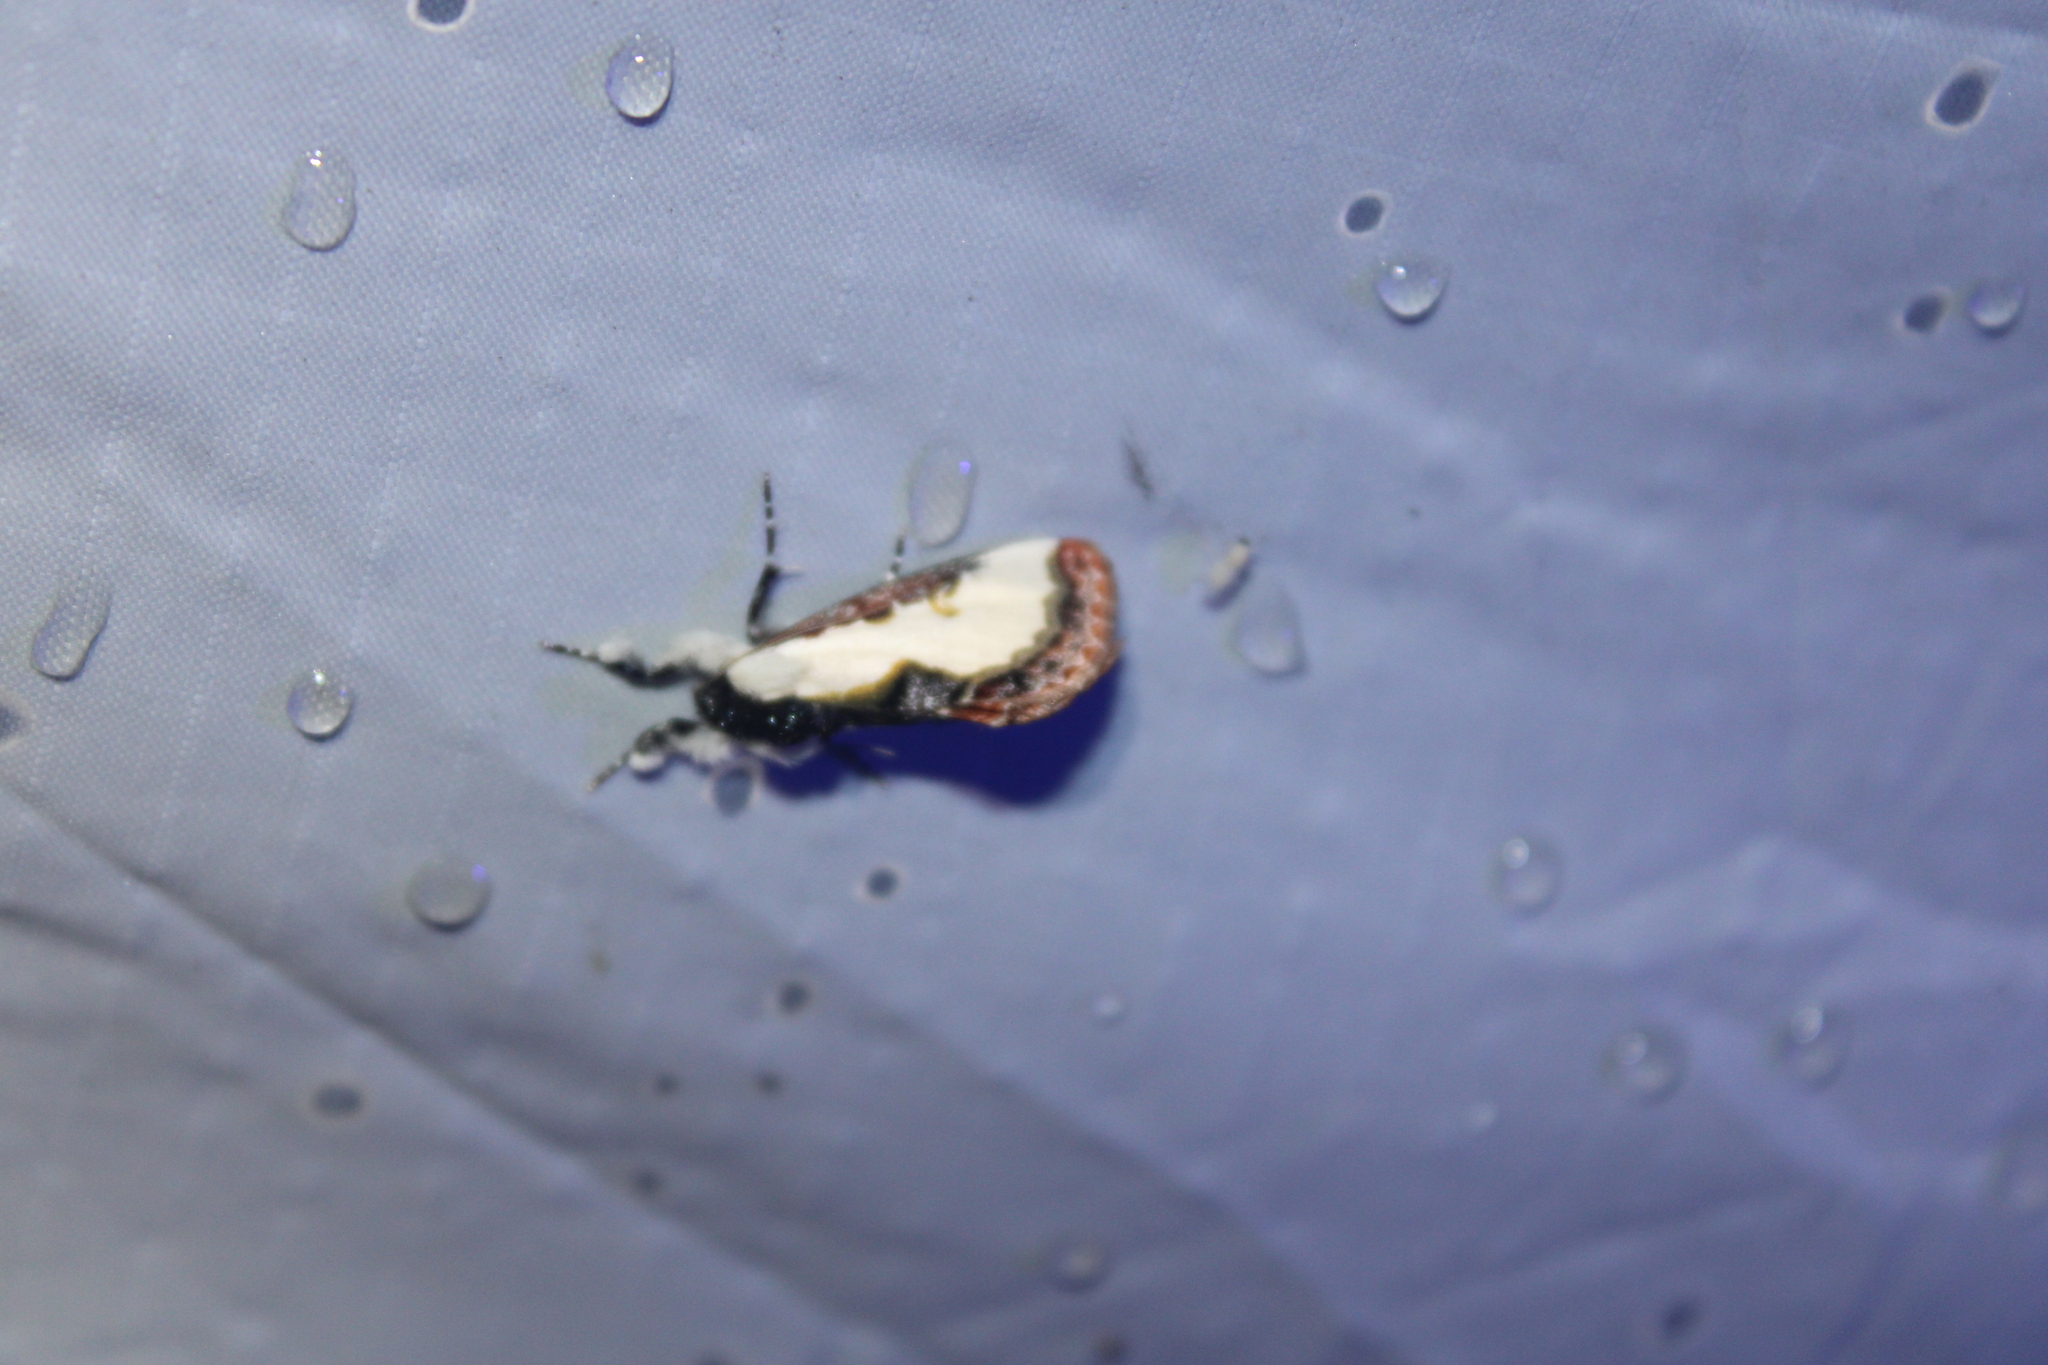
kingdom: Animalia
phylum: Arthropoda
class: Insecta
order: Lepidoptera
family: Noctuidae
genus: Eudryas
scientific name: Eudryas unio
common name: Pearly wood-nymph
